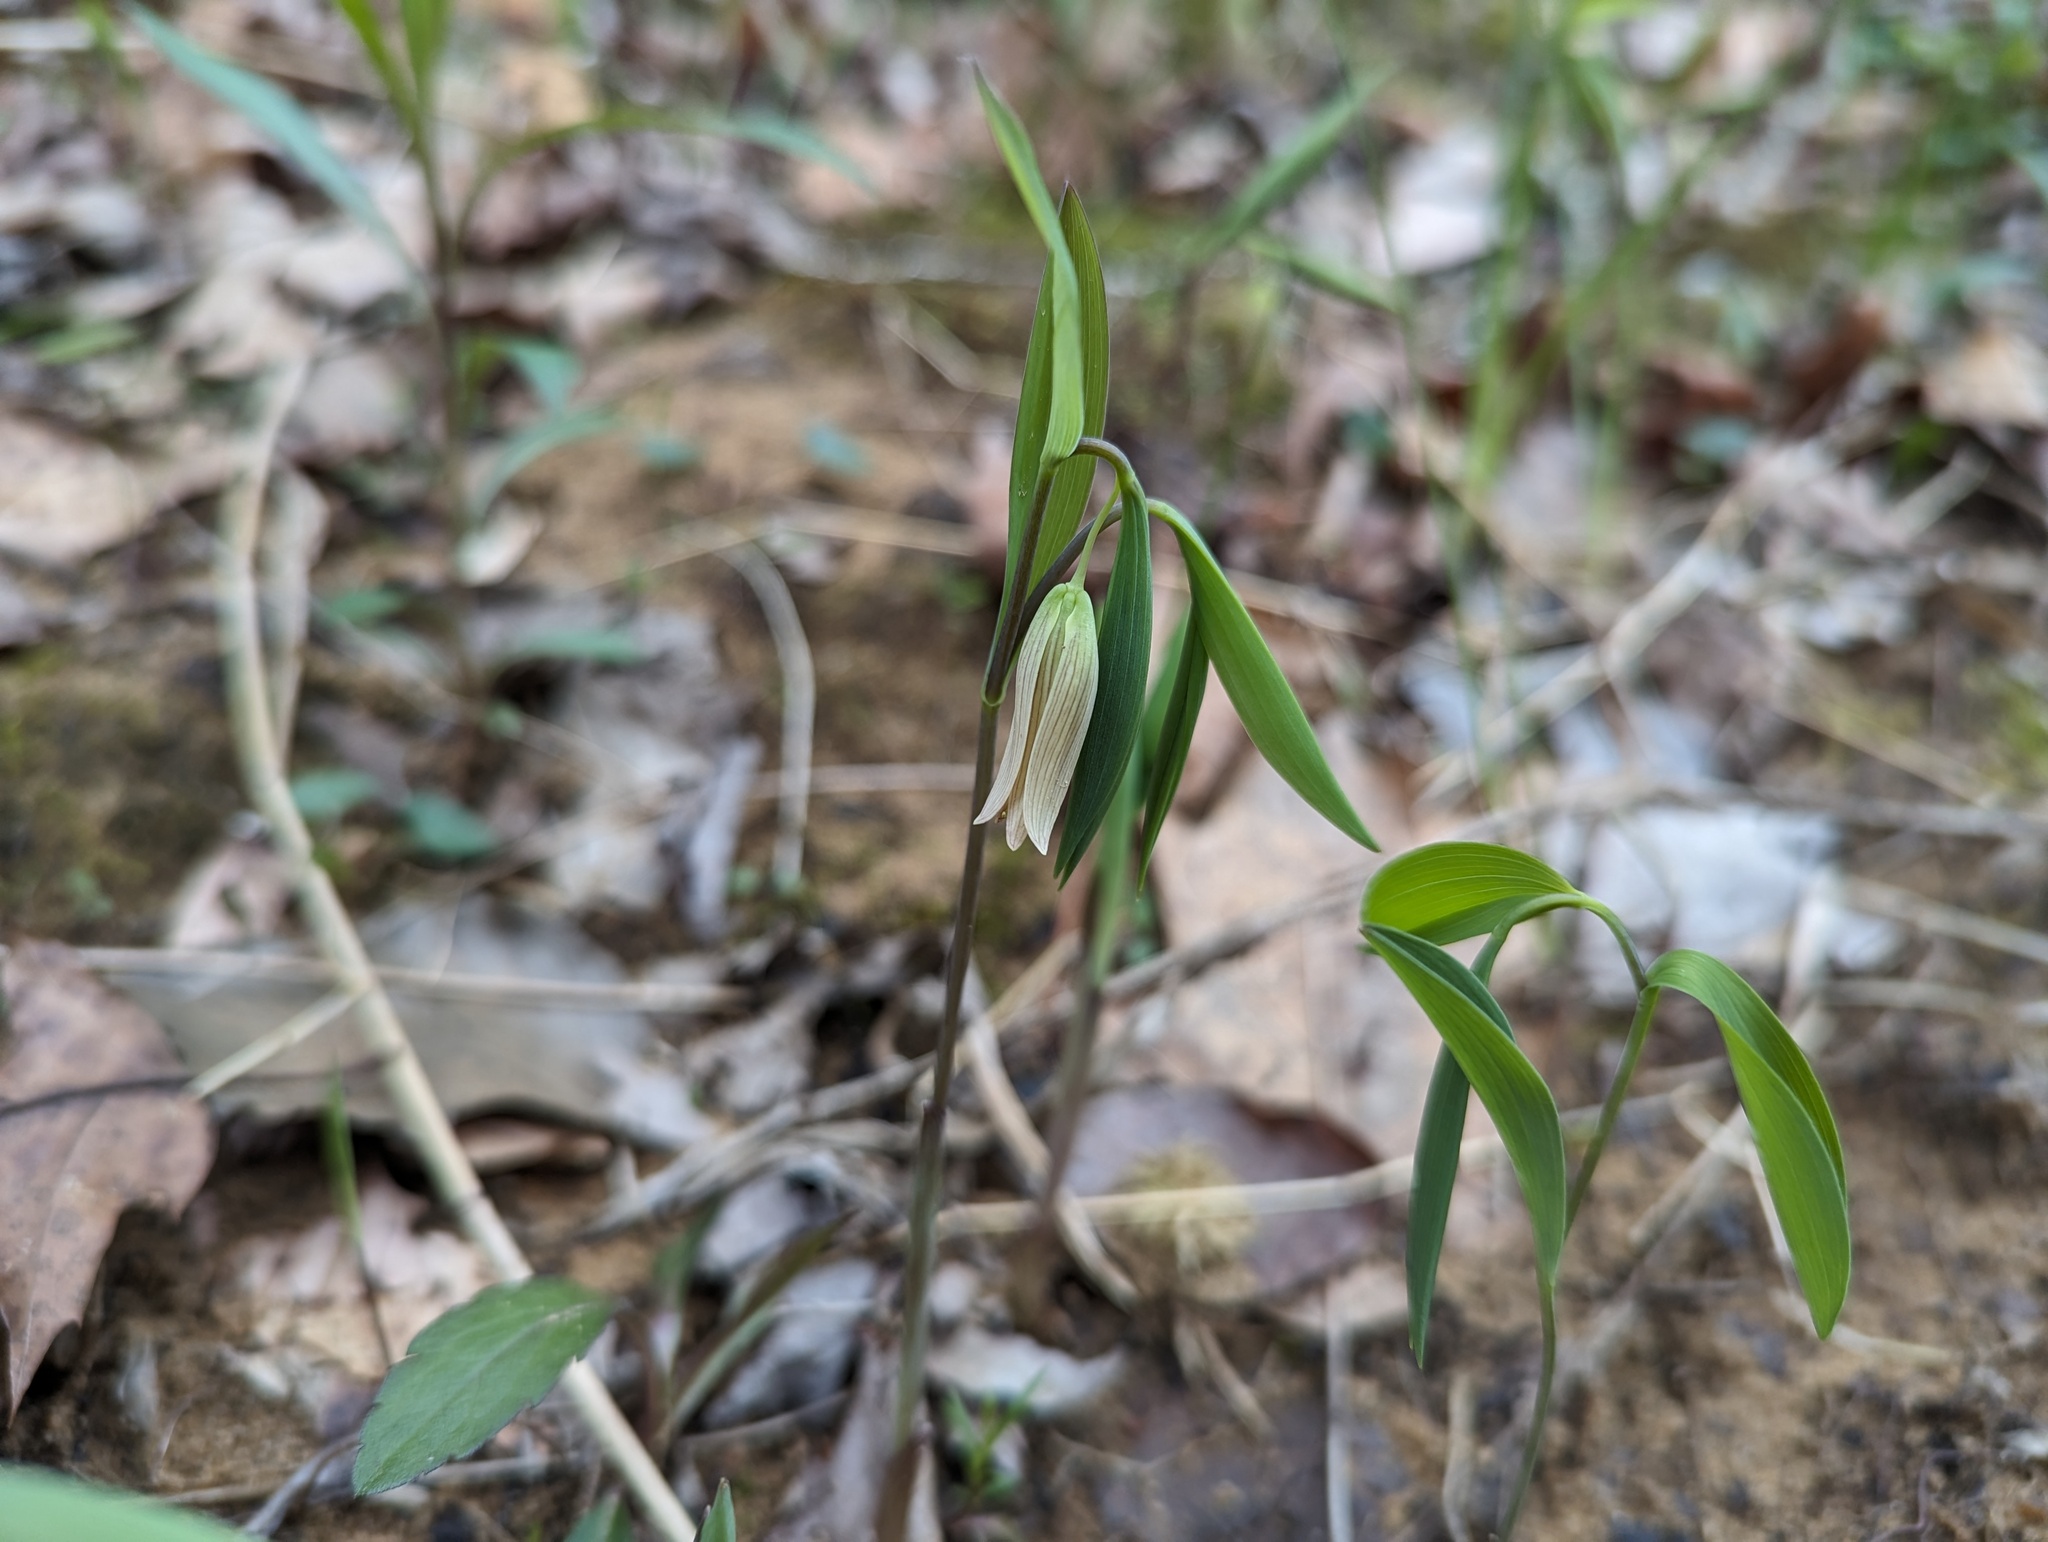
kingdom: Plantae
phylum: Tracheophyta
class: Liliopsida
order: Liliales
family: Colchicaceae
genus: Uvularia
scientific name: Uvularia sessilifolia
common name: Straw-lily
